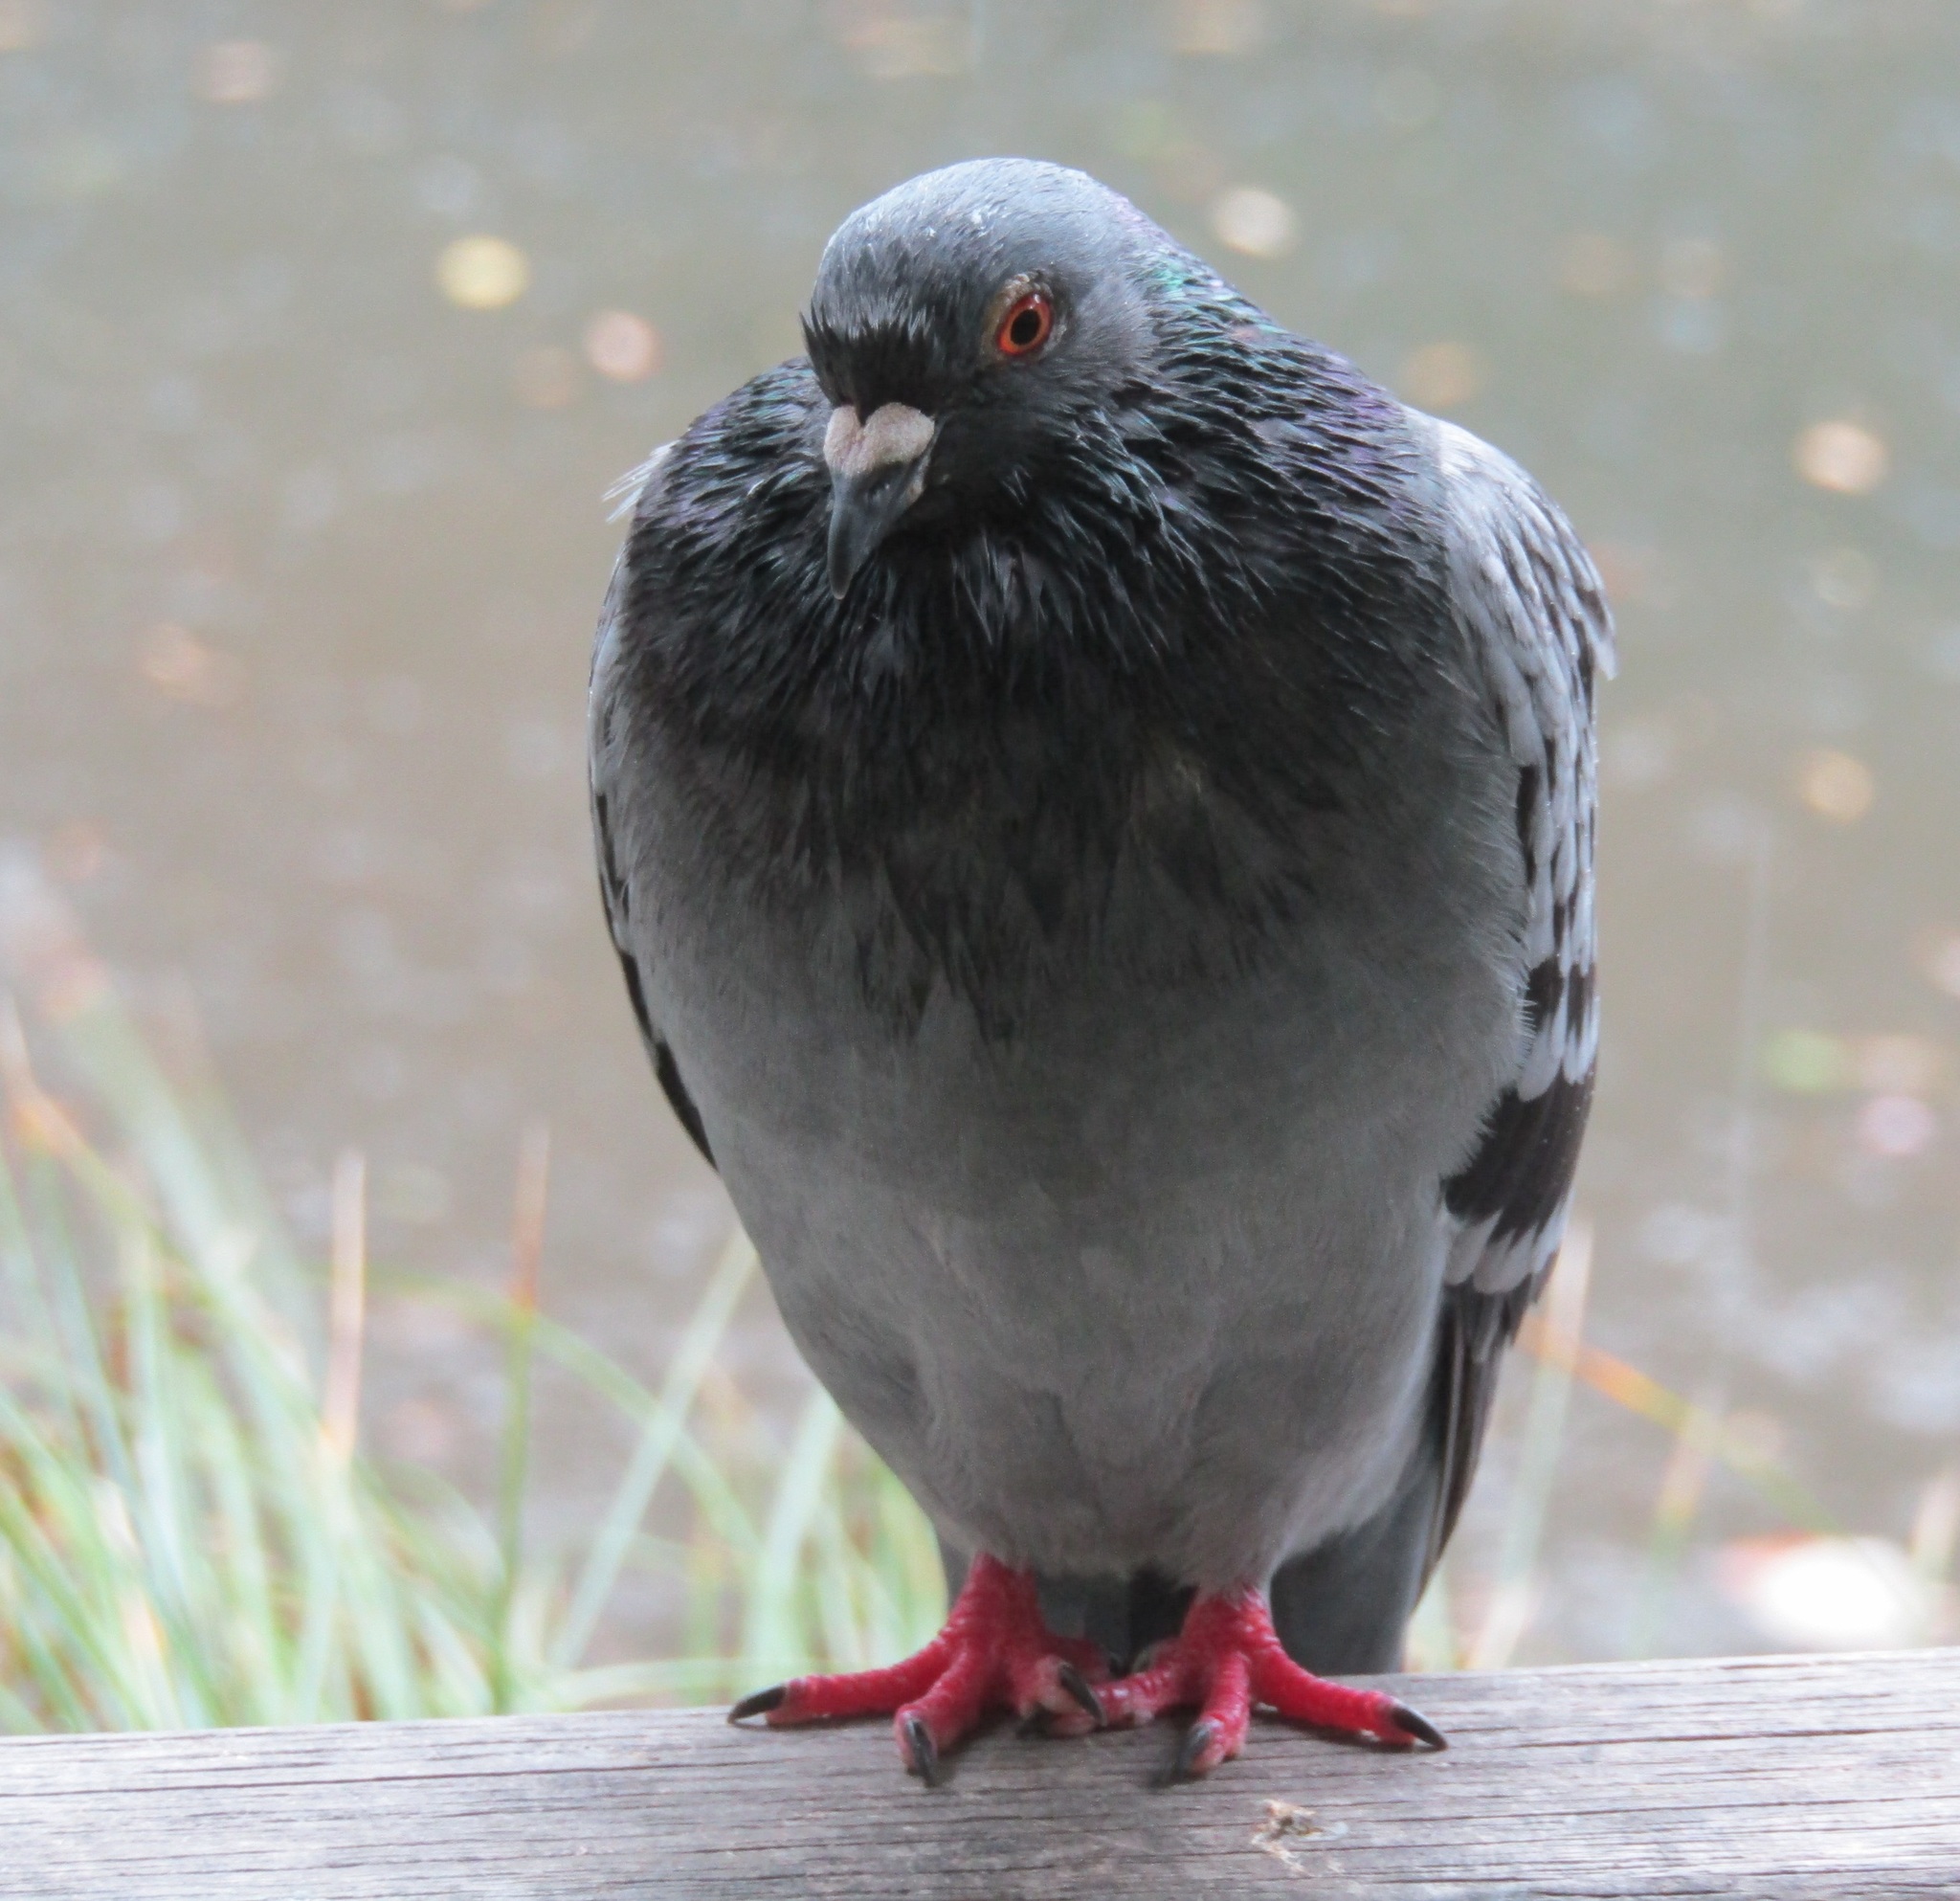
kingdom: Animalia
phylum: Chordata
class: Aves
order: Columbiformes
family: Columbidae
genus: Columba
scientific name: Columba livia
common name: Rock pigeon
